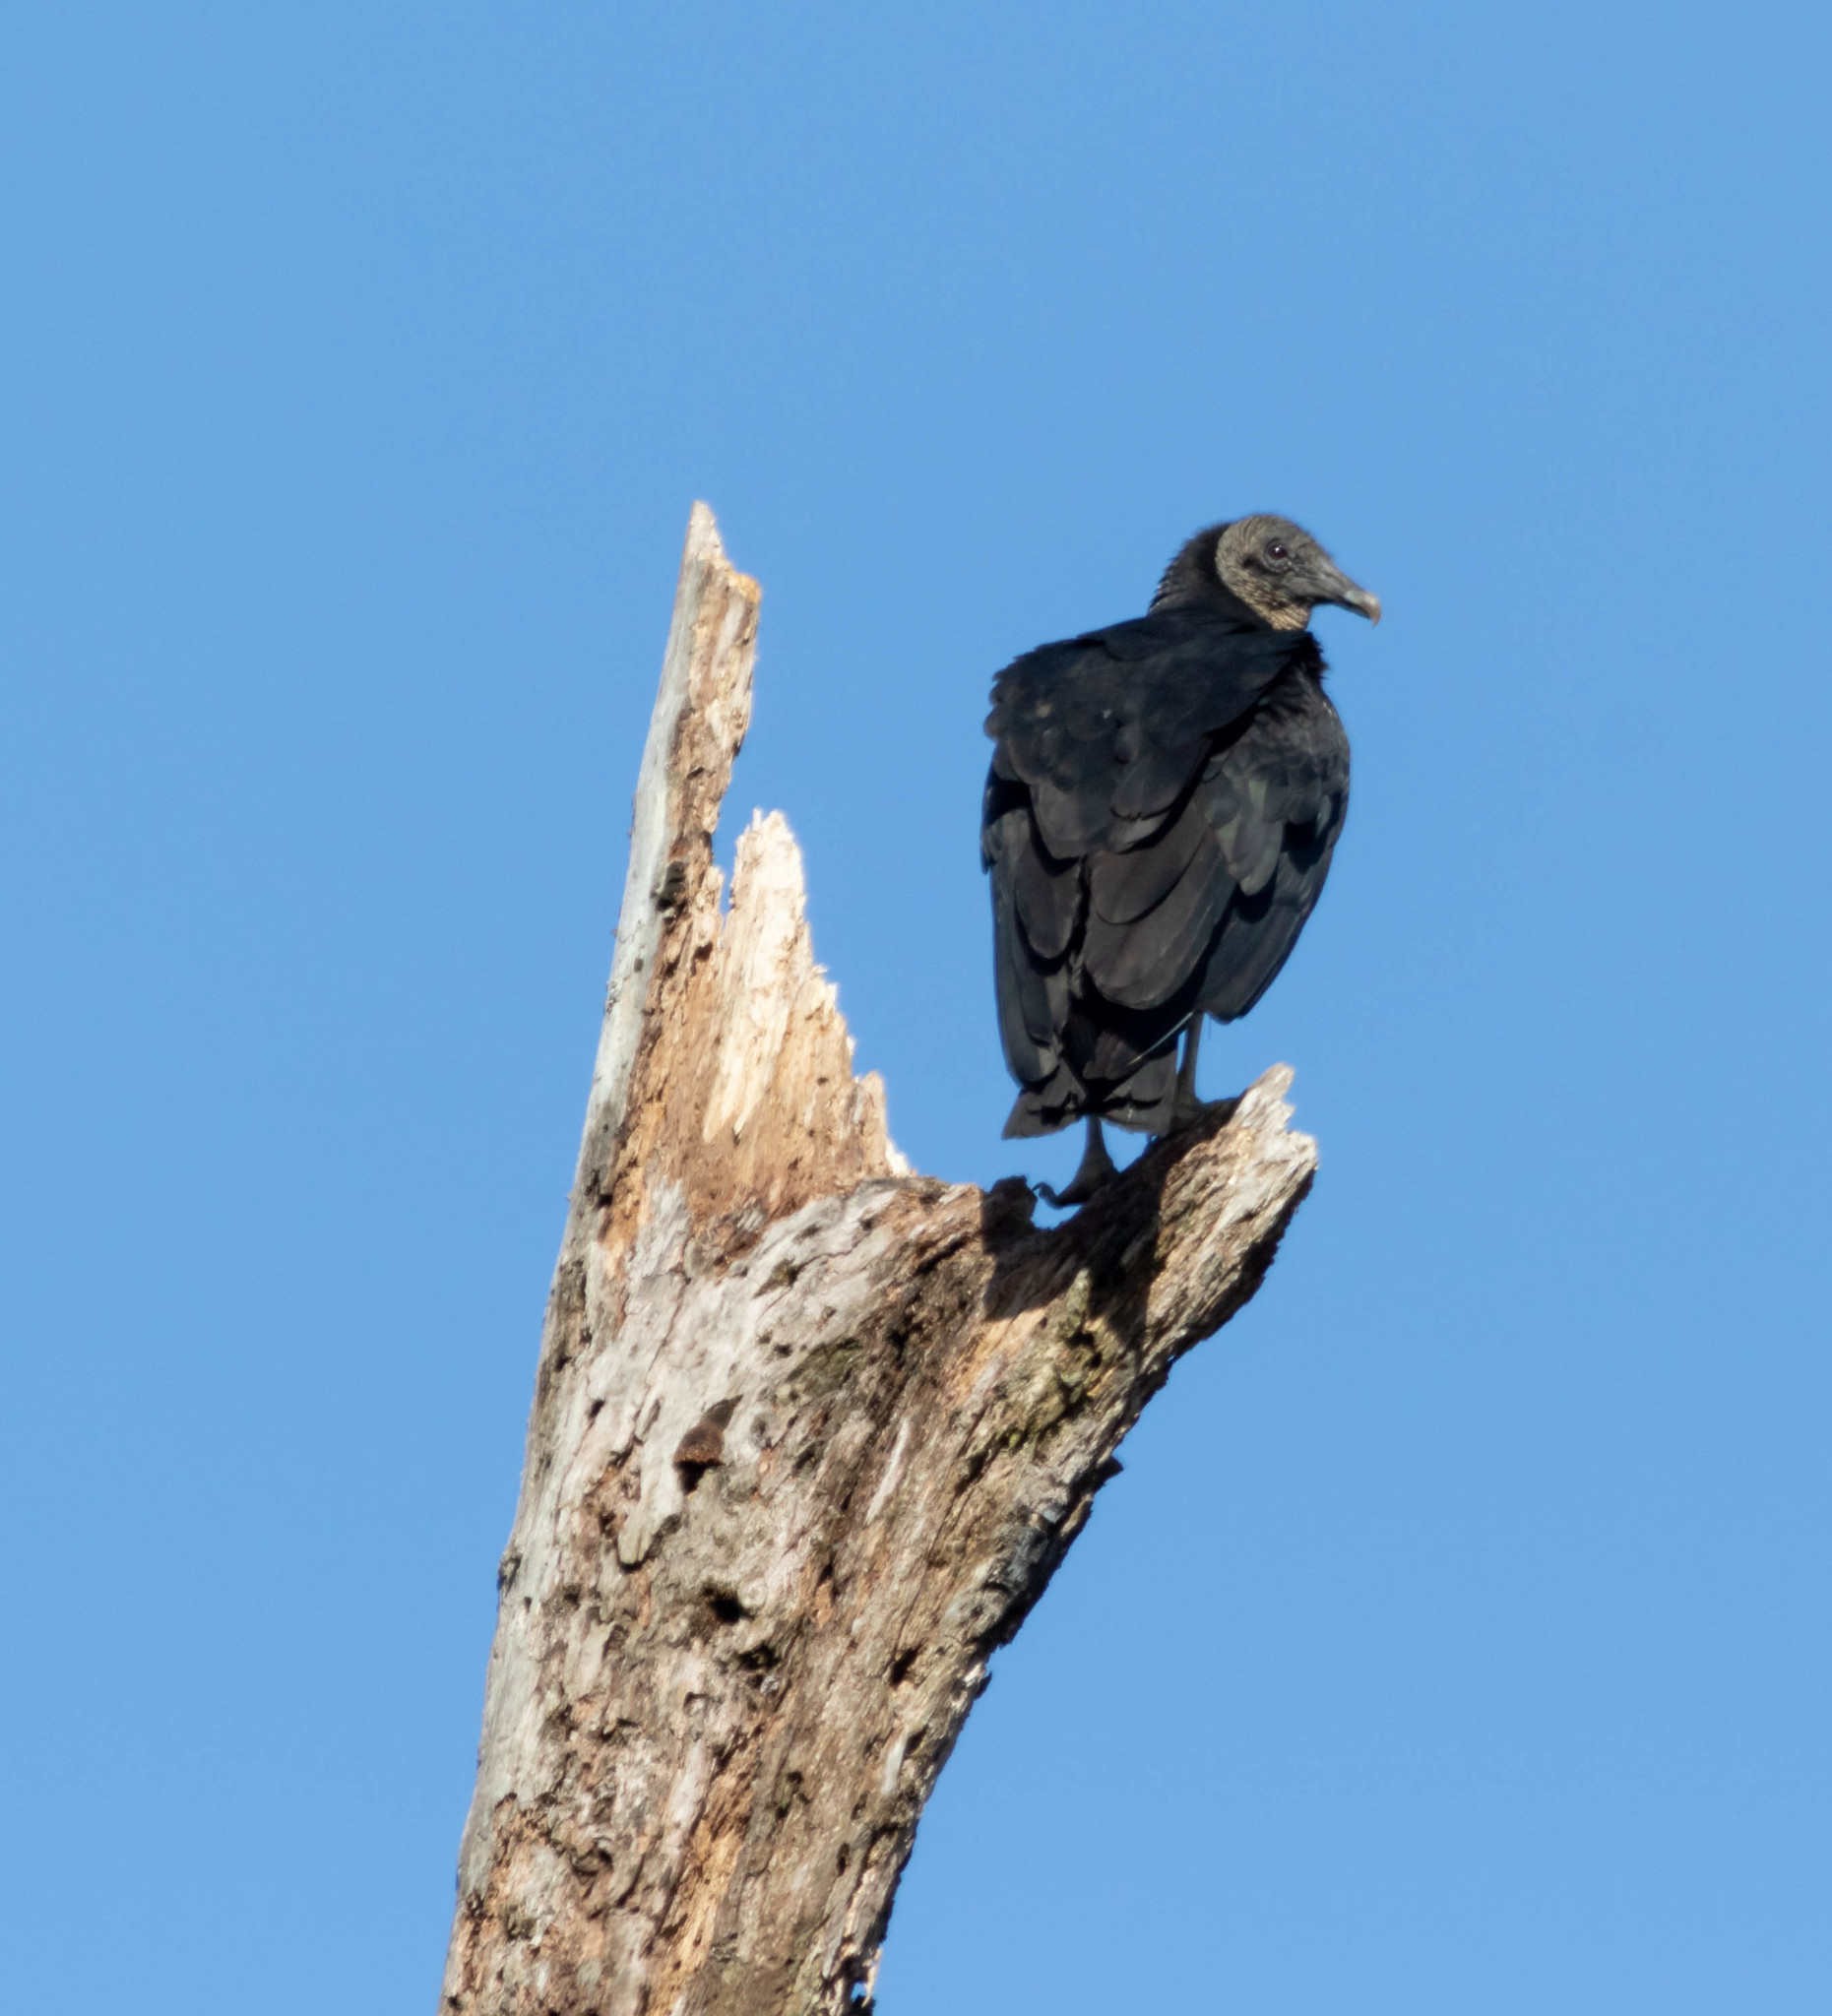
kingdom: Animalia
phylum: Chordata
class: Aves
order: Accipitriformes
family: Cathartidae
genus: Coragyps
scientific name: Coragyps atratus
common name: Black vulture
